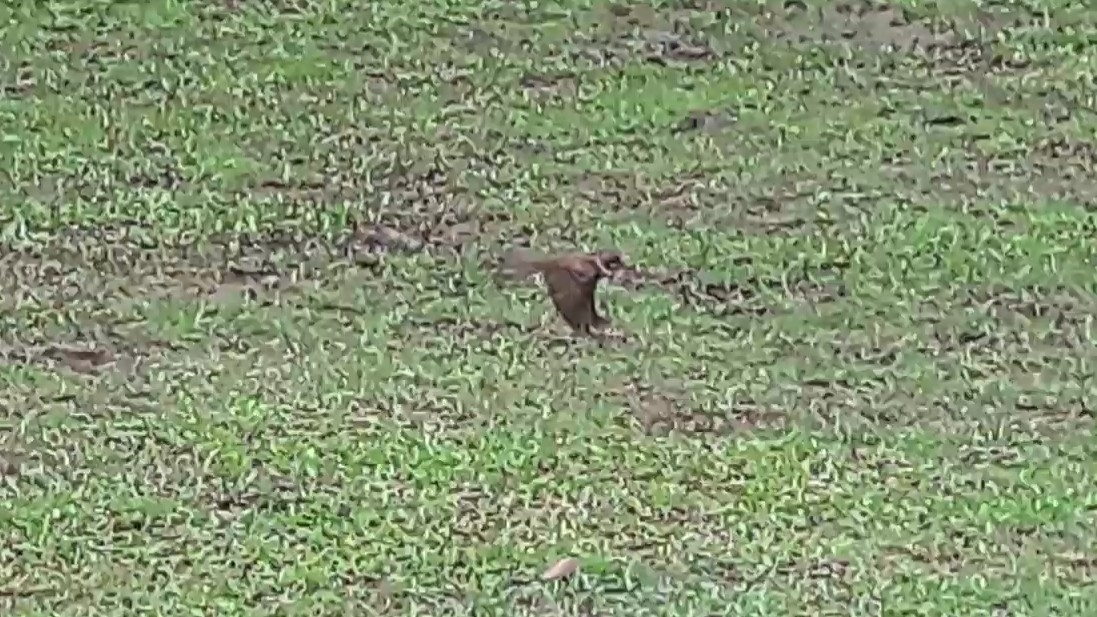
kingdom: Animalia
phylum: Chordata
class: Aves
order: Passeriformes
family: Passeridae
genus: Passer
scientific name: Passer montanus
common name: Eurasian tree sparrow
